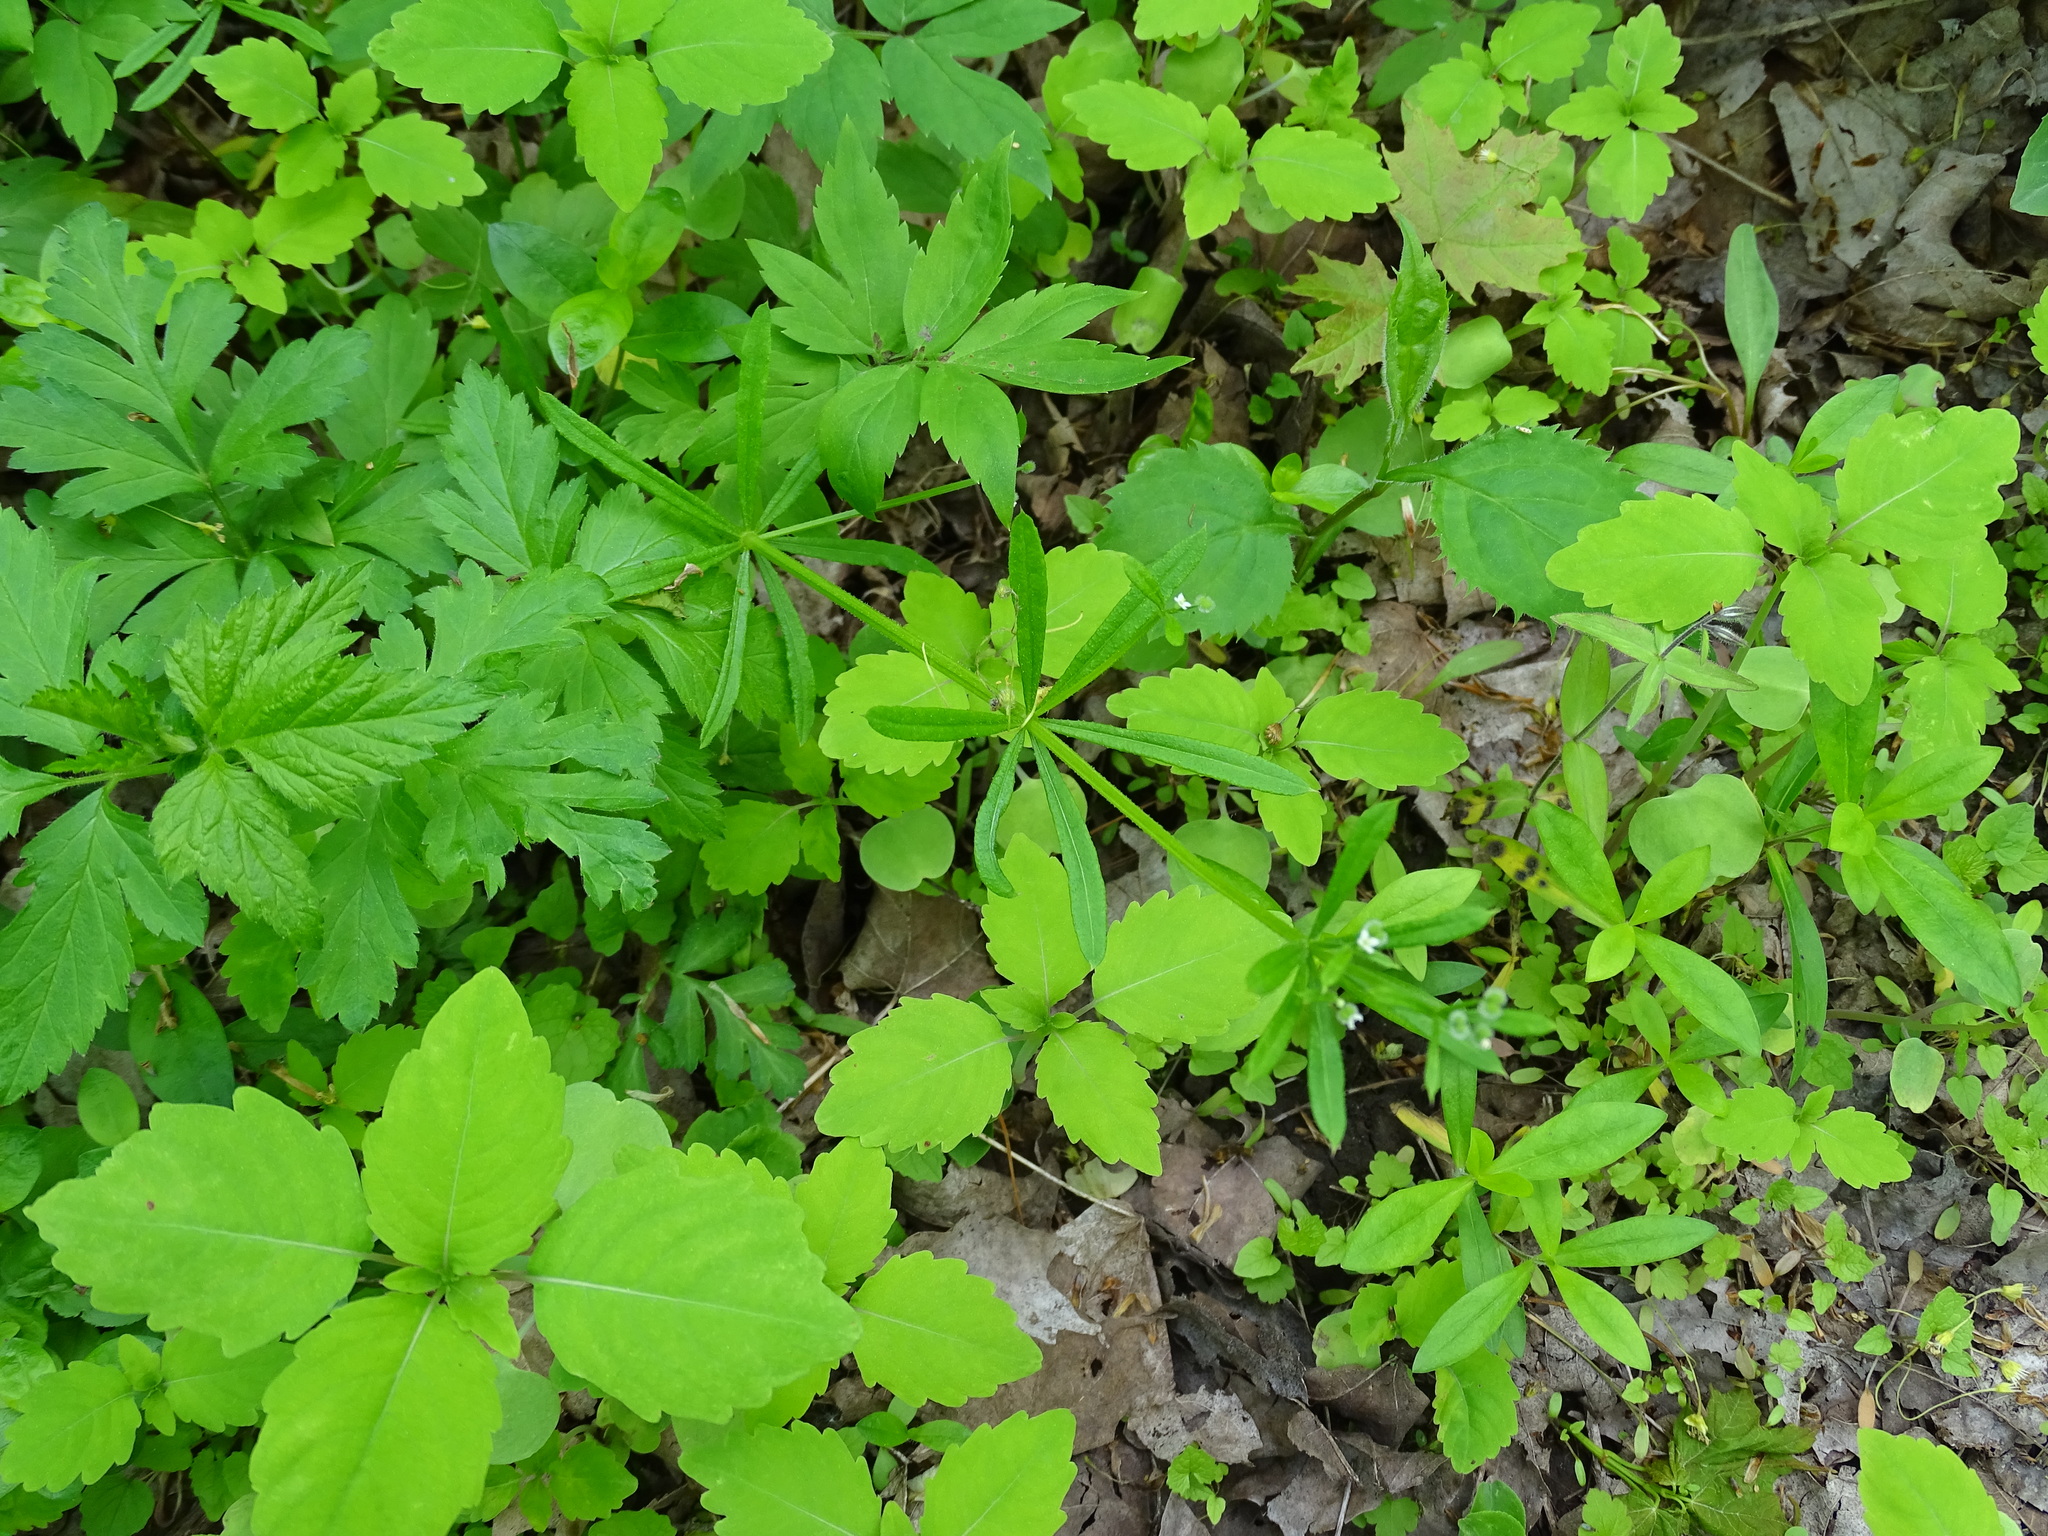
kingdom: Plantae
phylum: Tracheophyta
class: Magnoliopsida
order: Gentianales
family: Rubiaceae
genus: Galium
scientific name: Galium aparine
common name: Cleavers
